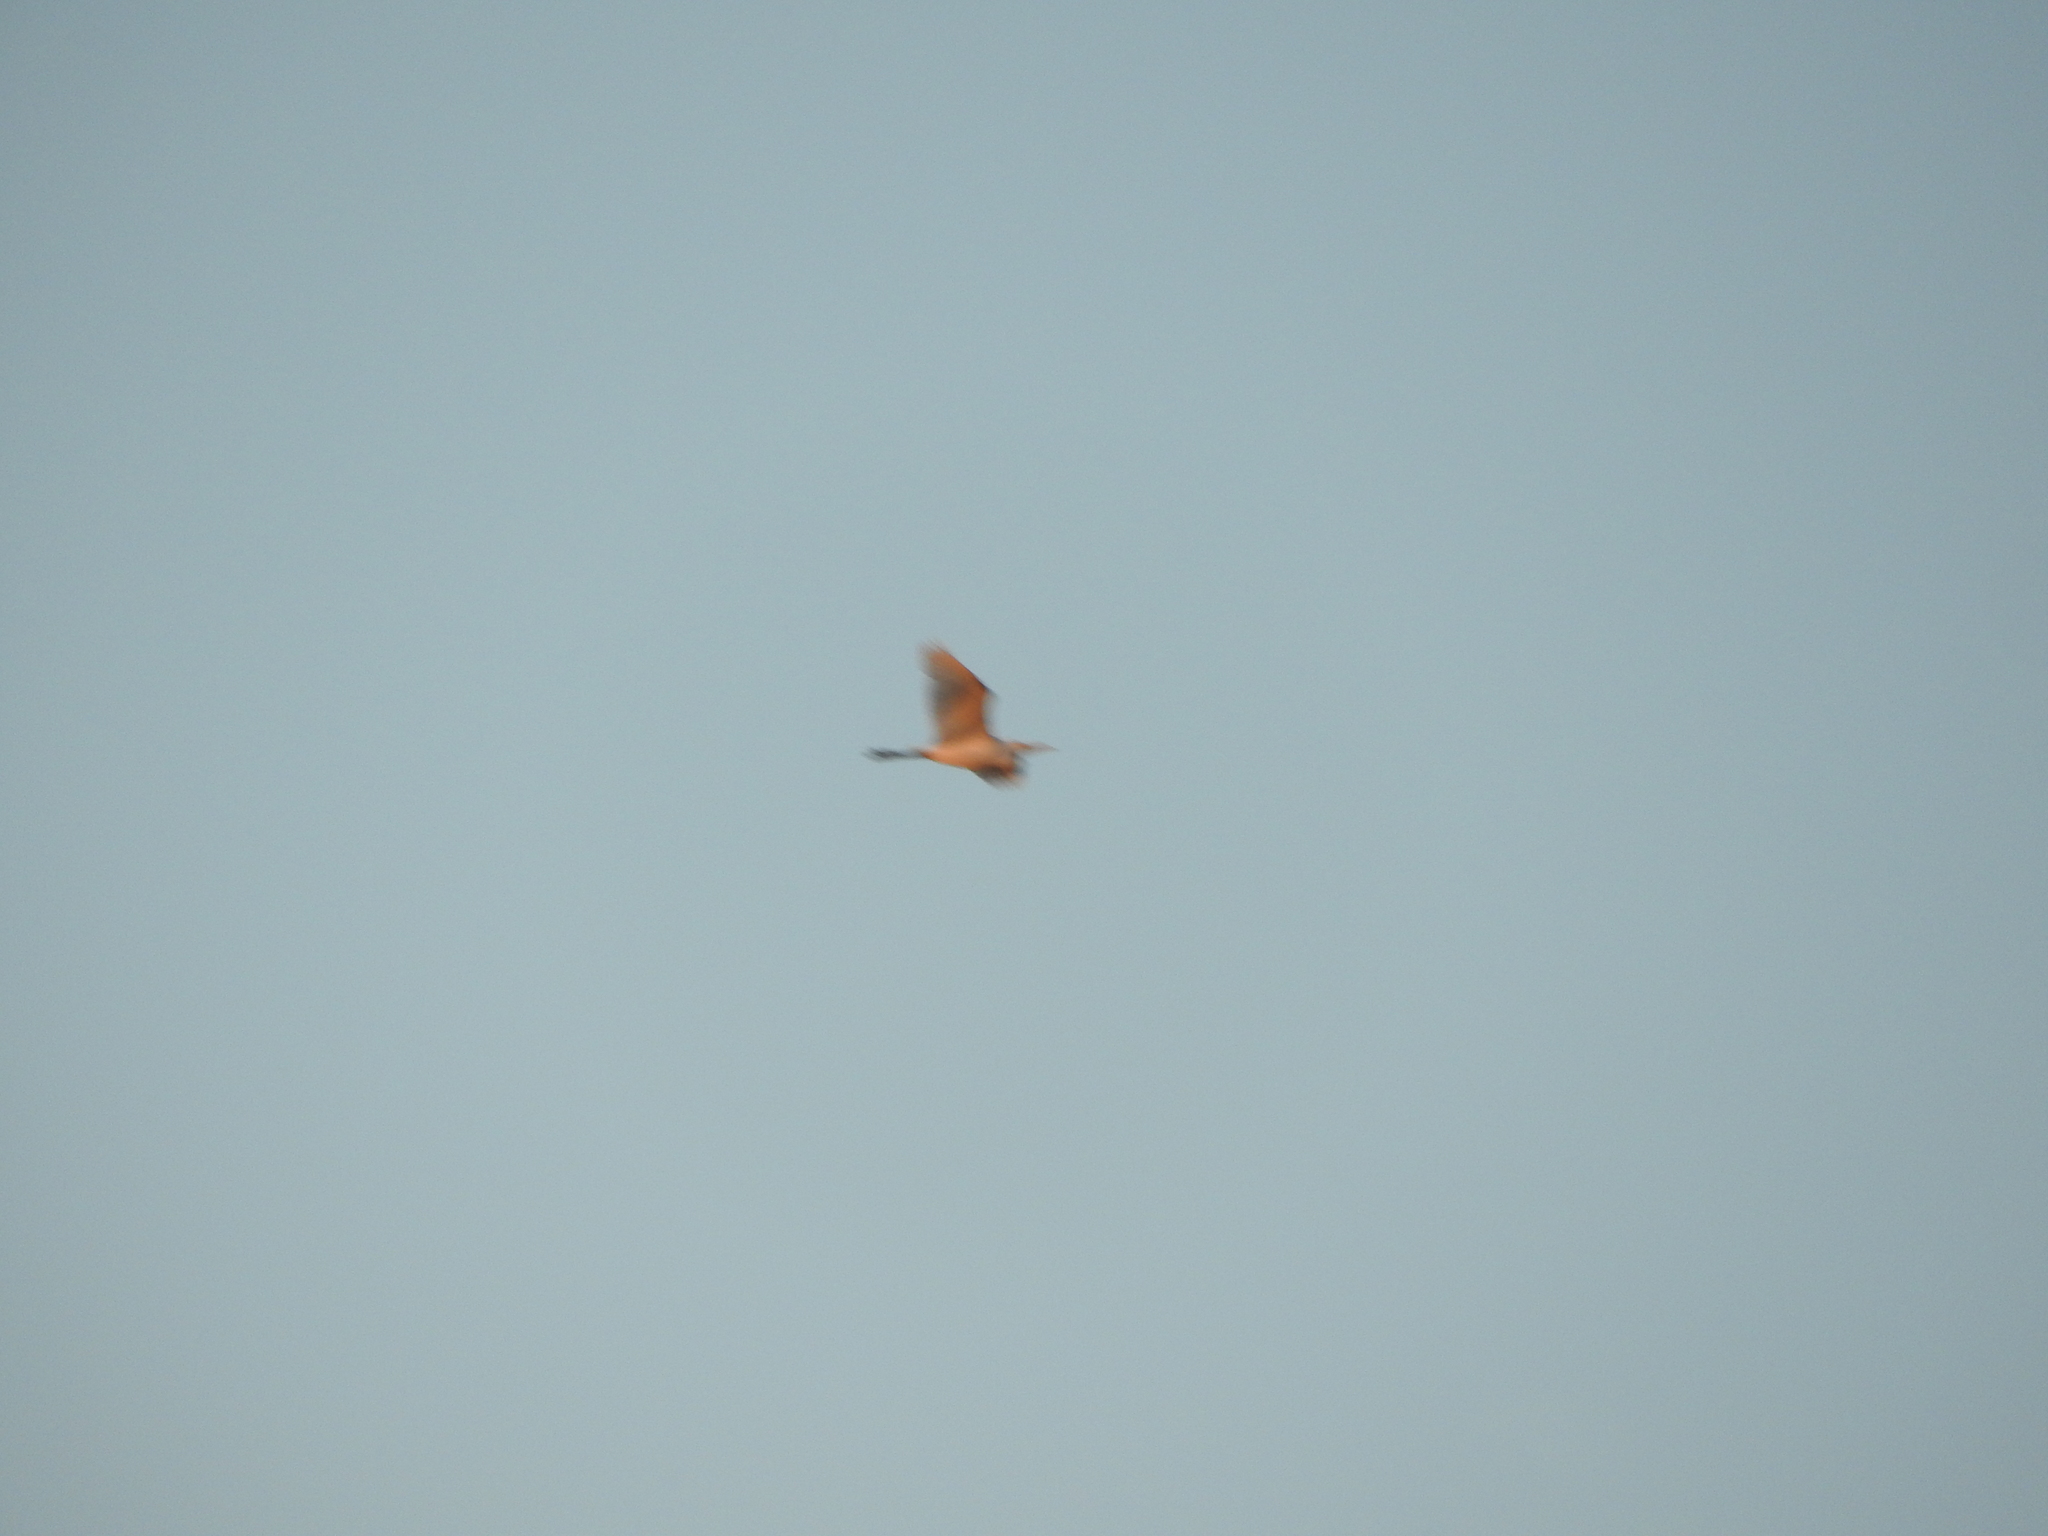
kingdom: Animalia
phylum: Chordata
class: Aves
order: Pelecaniformes
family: Ardeidae
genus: Bubulcus
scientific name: Bubulcus ibis
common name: Cattle egret
